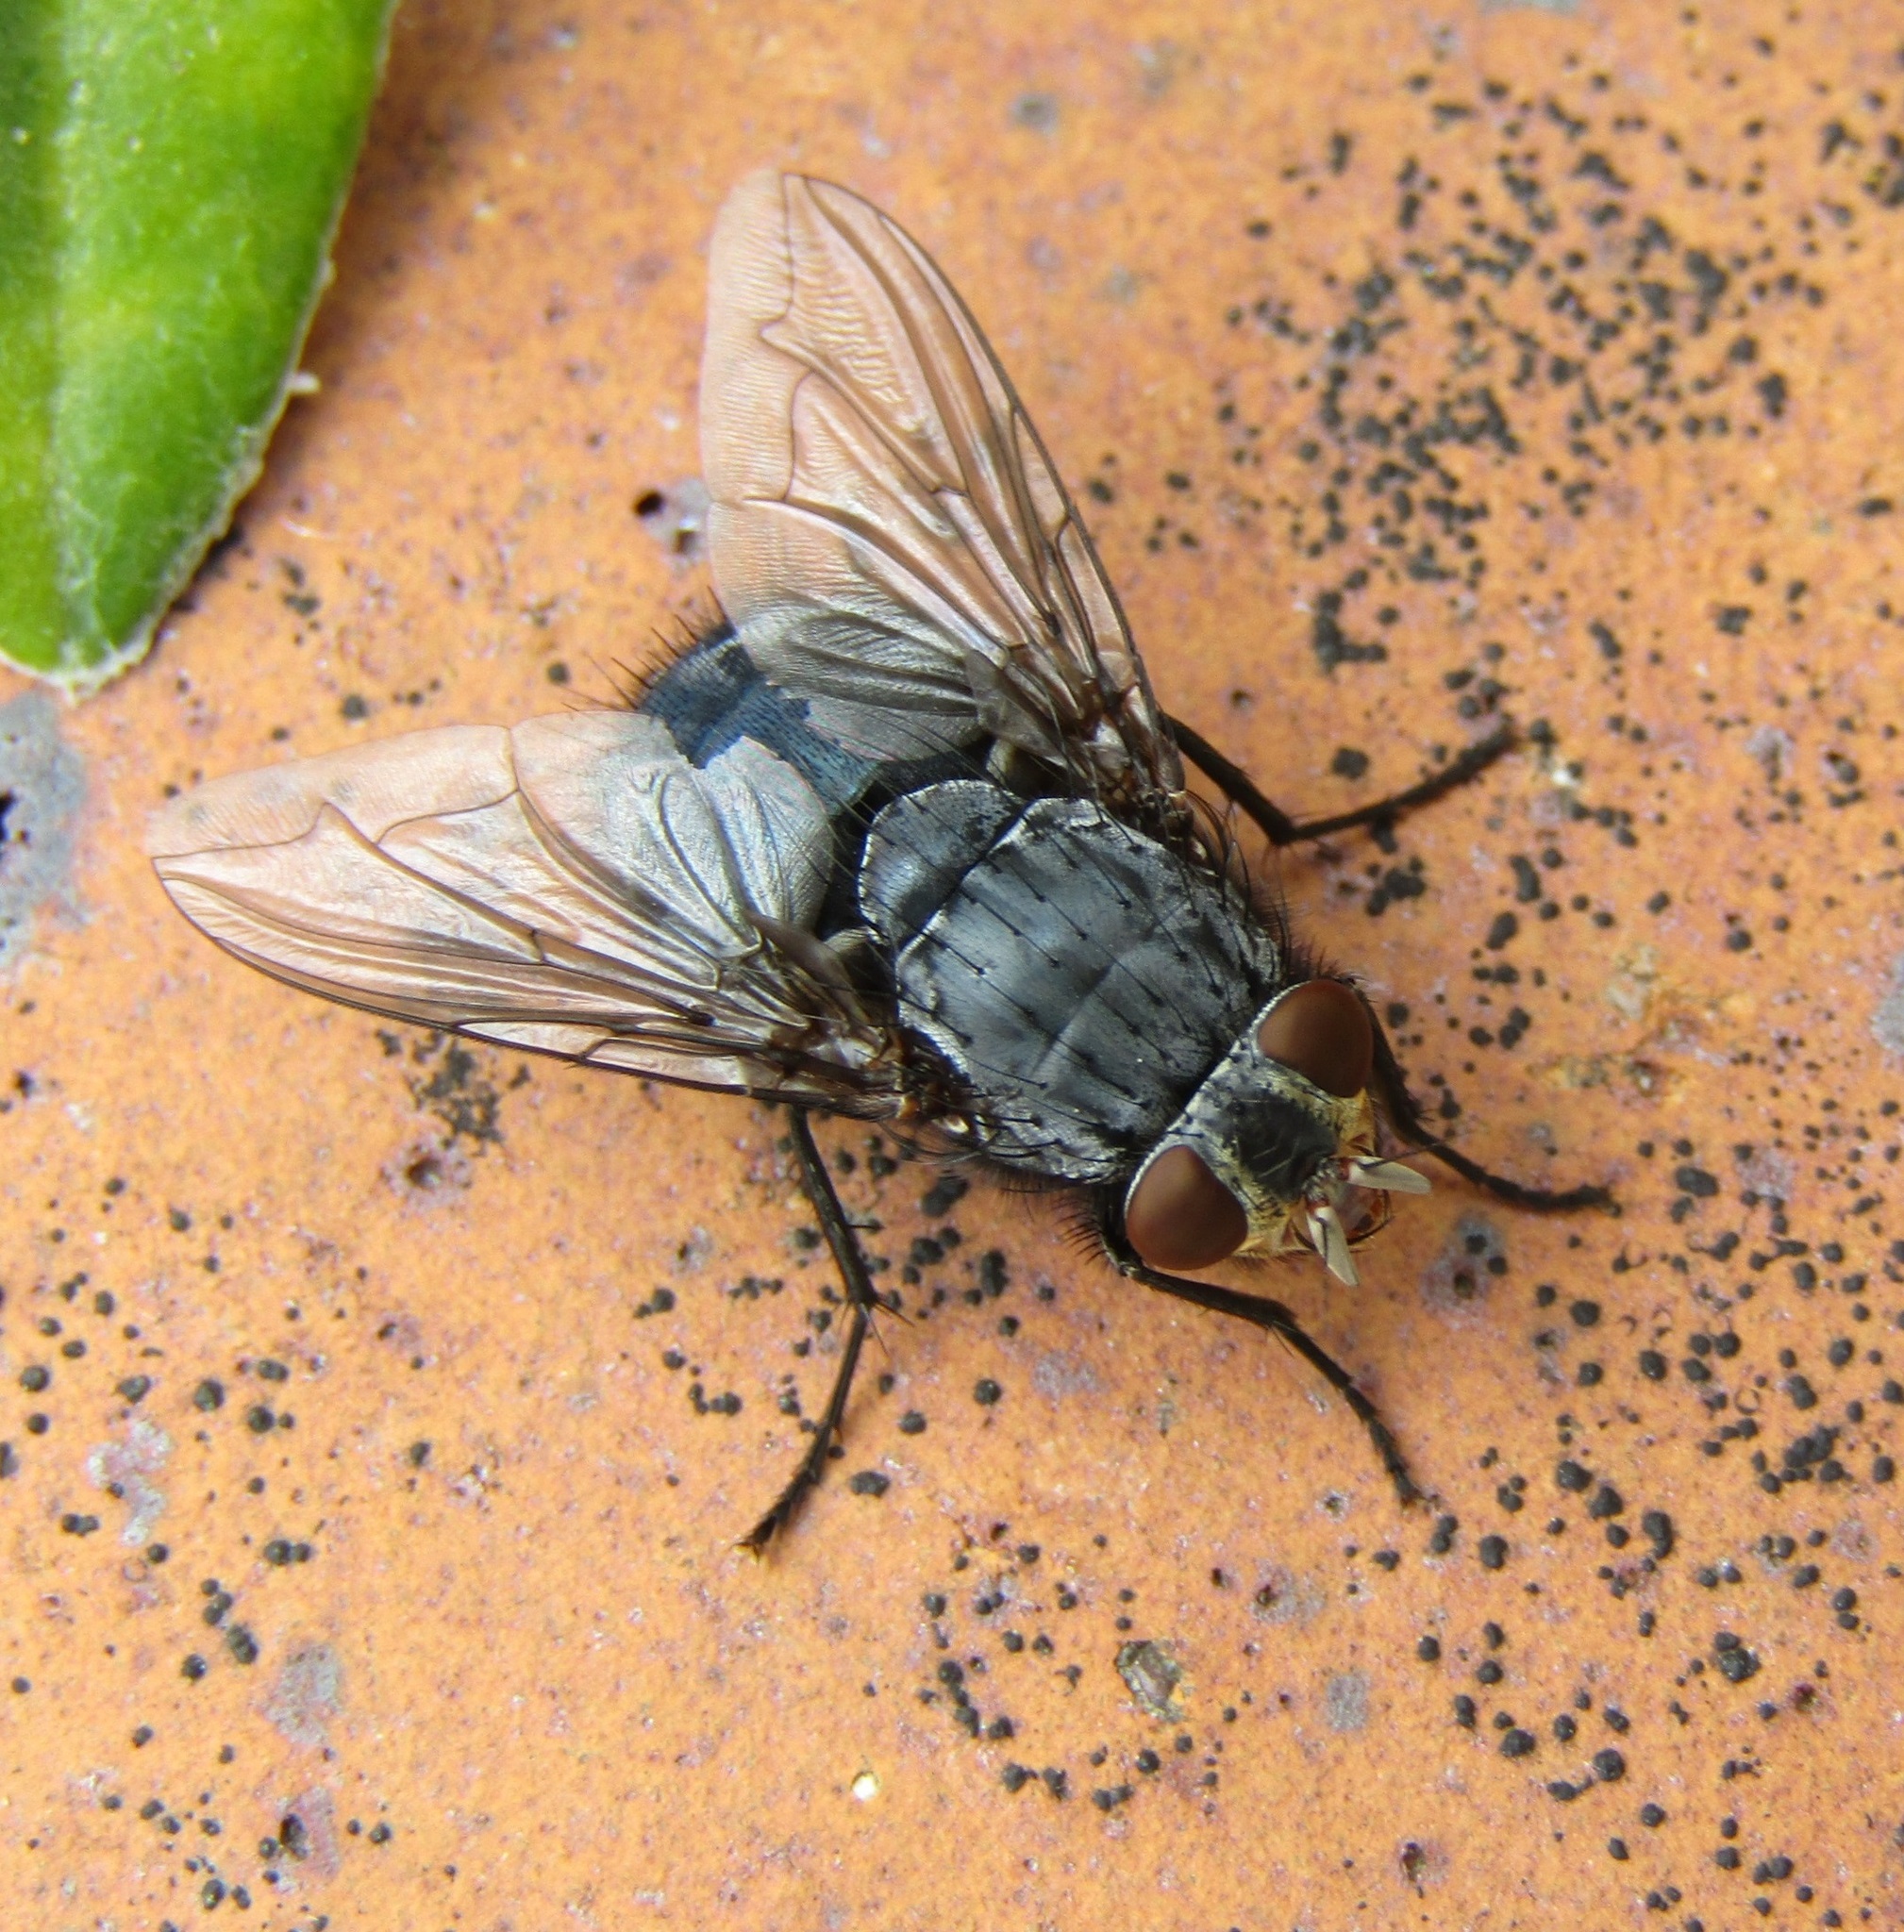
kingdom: Animalia
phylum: Arthropoda
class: Insecta
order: Diptera
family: Calliphoridae
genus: Calliphora
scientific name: Calliphora vicina
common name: Common blow flie
